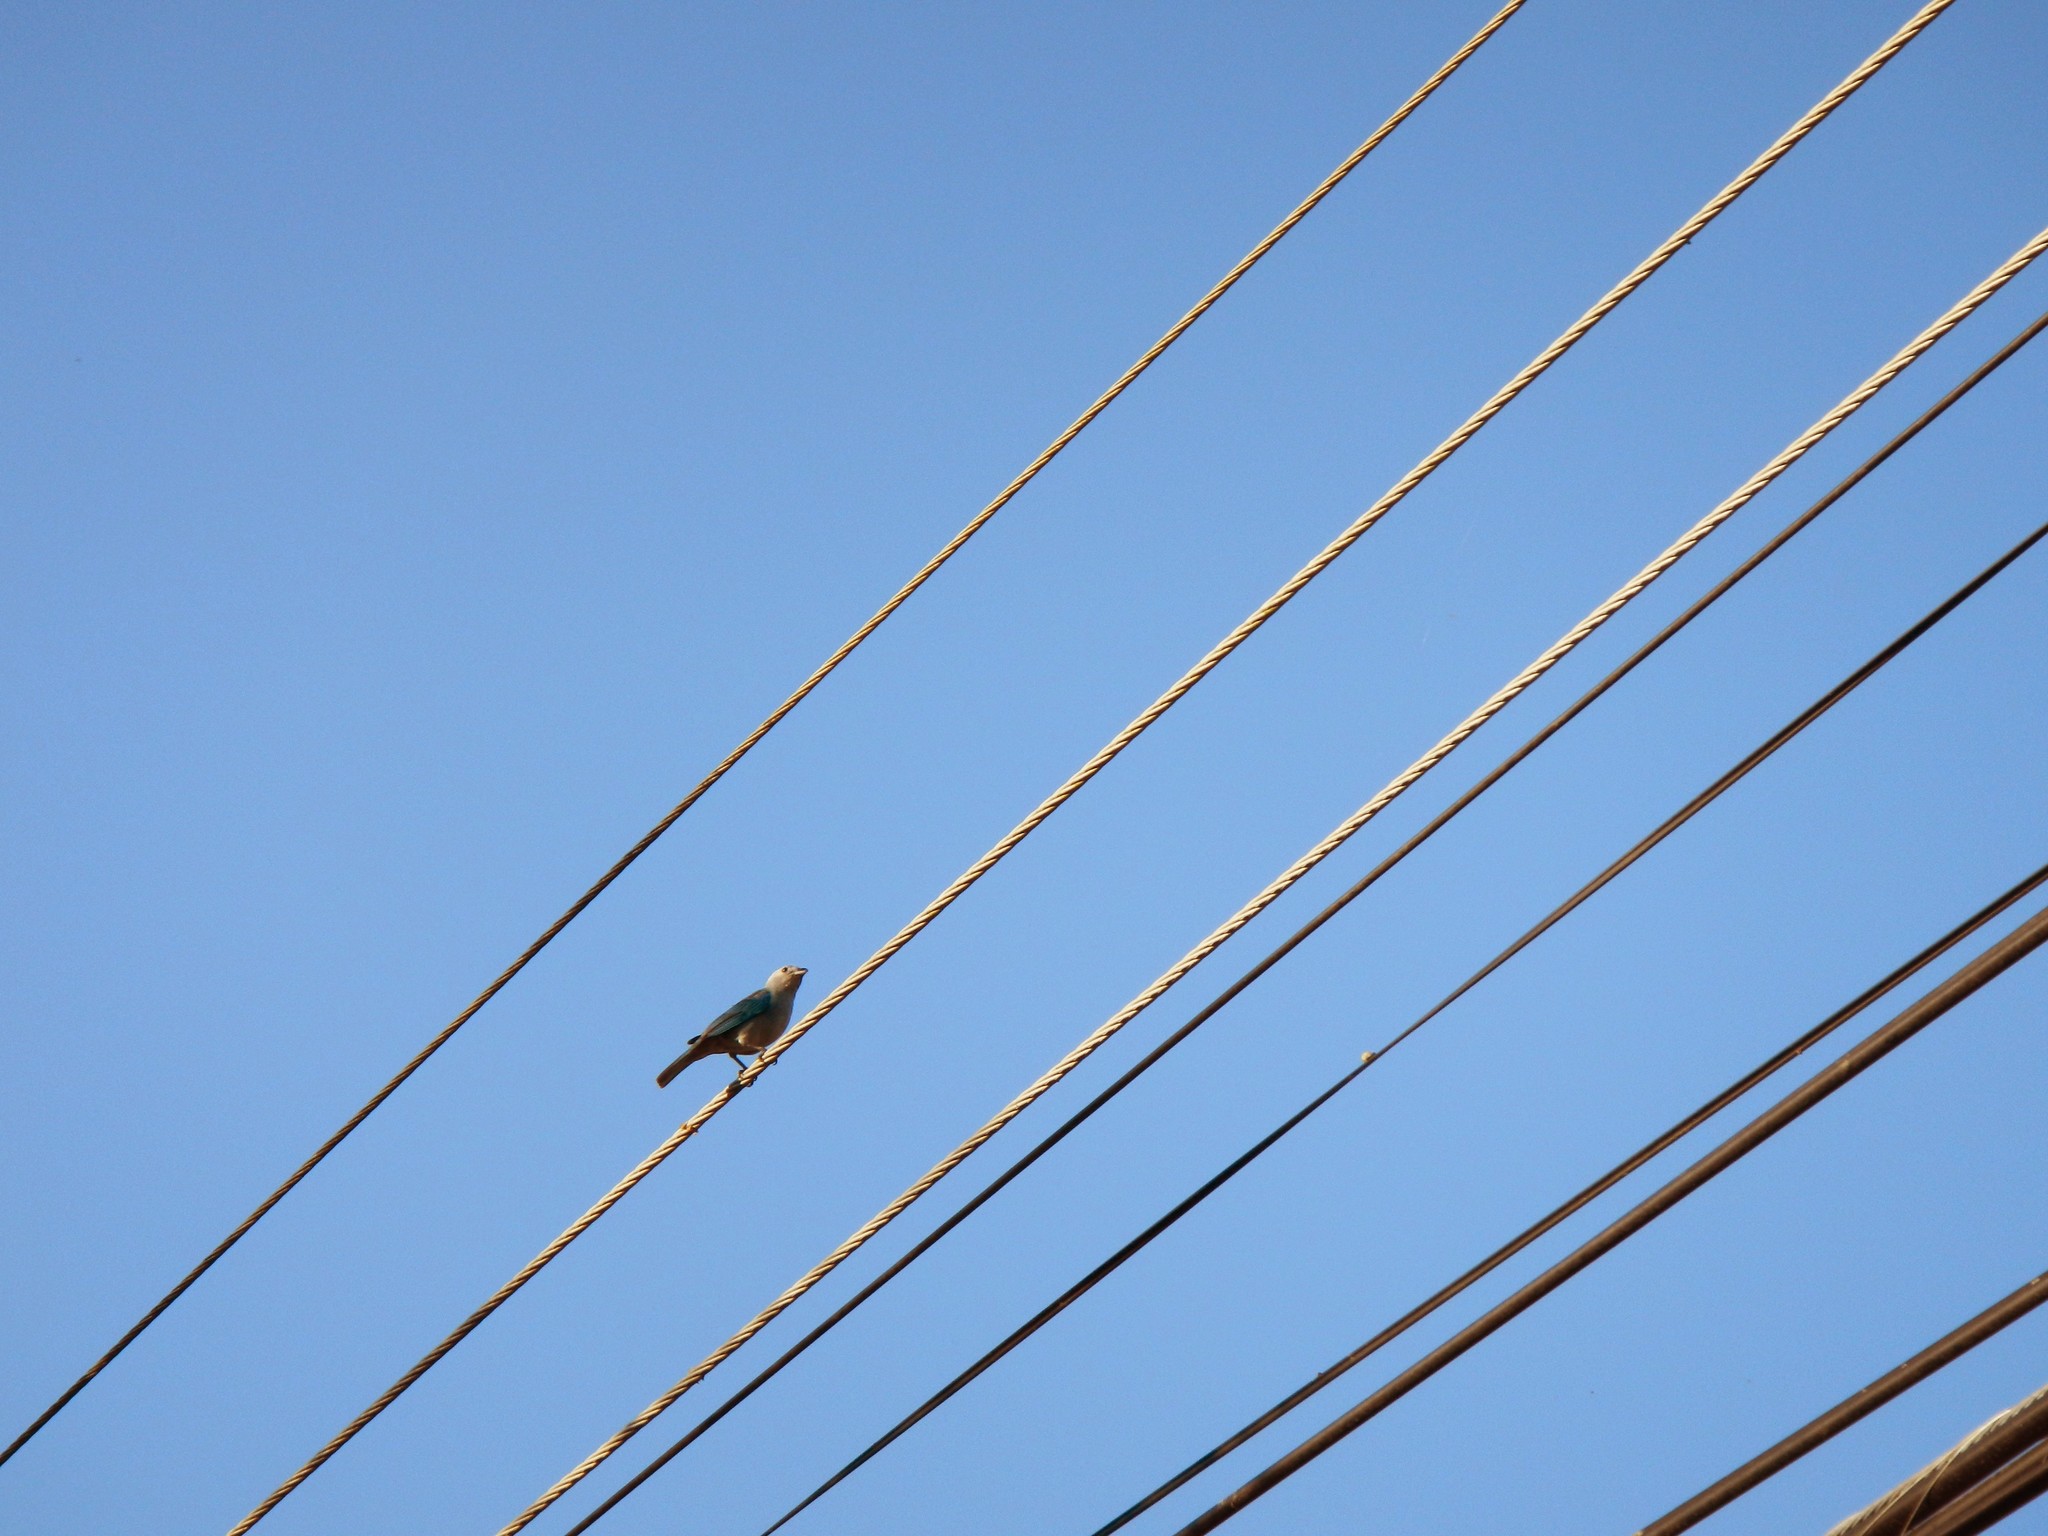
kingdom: Animalia
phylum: Chordata
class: Aves
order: Passeriformes
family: Thraupidae
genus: Thraupis
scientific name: Thraupis episcopus
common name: Blue-grey tanager
